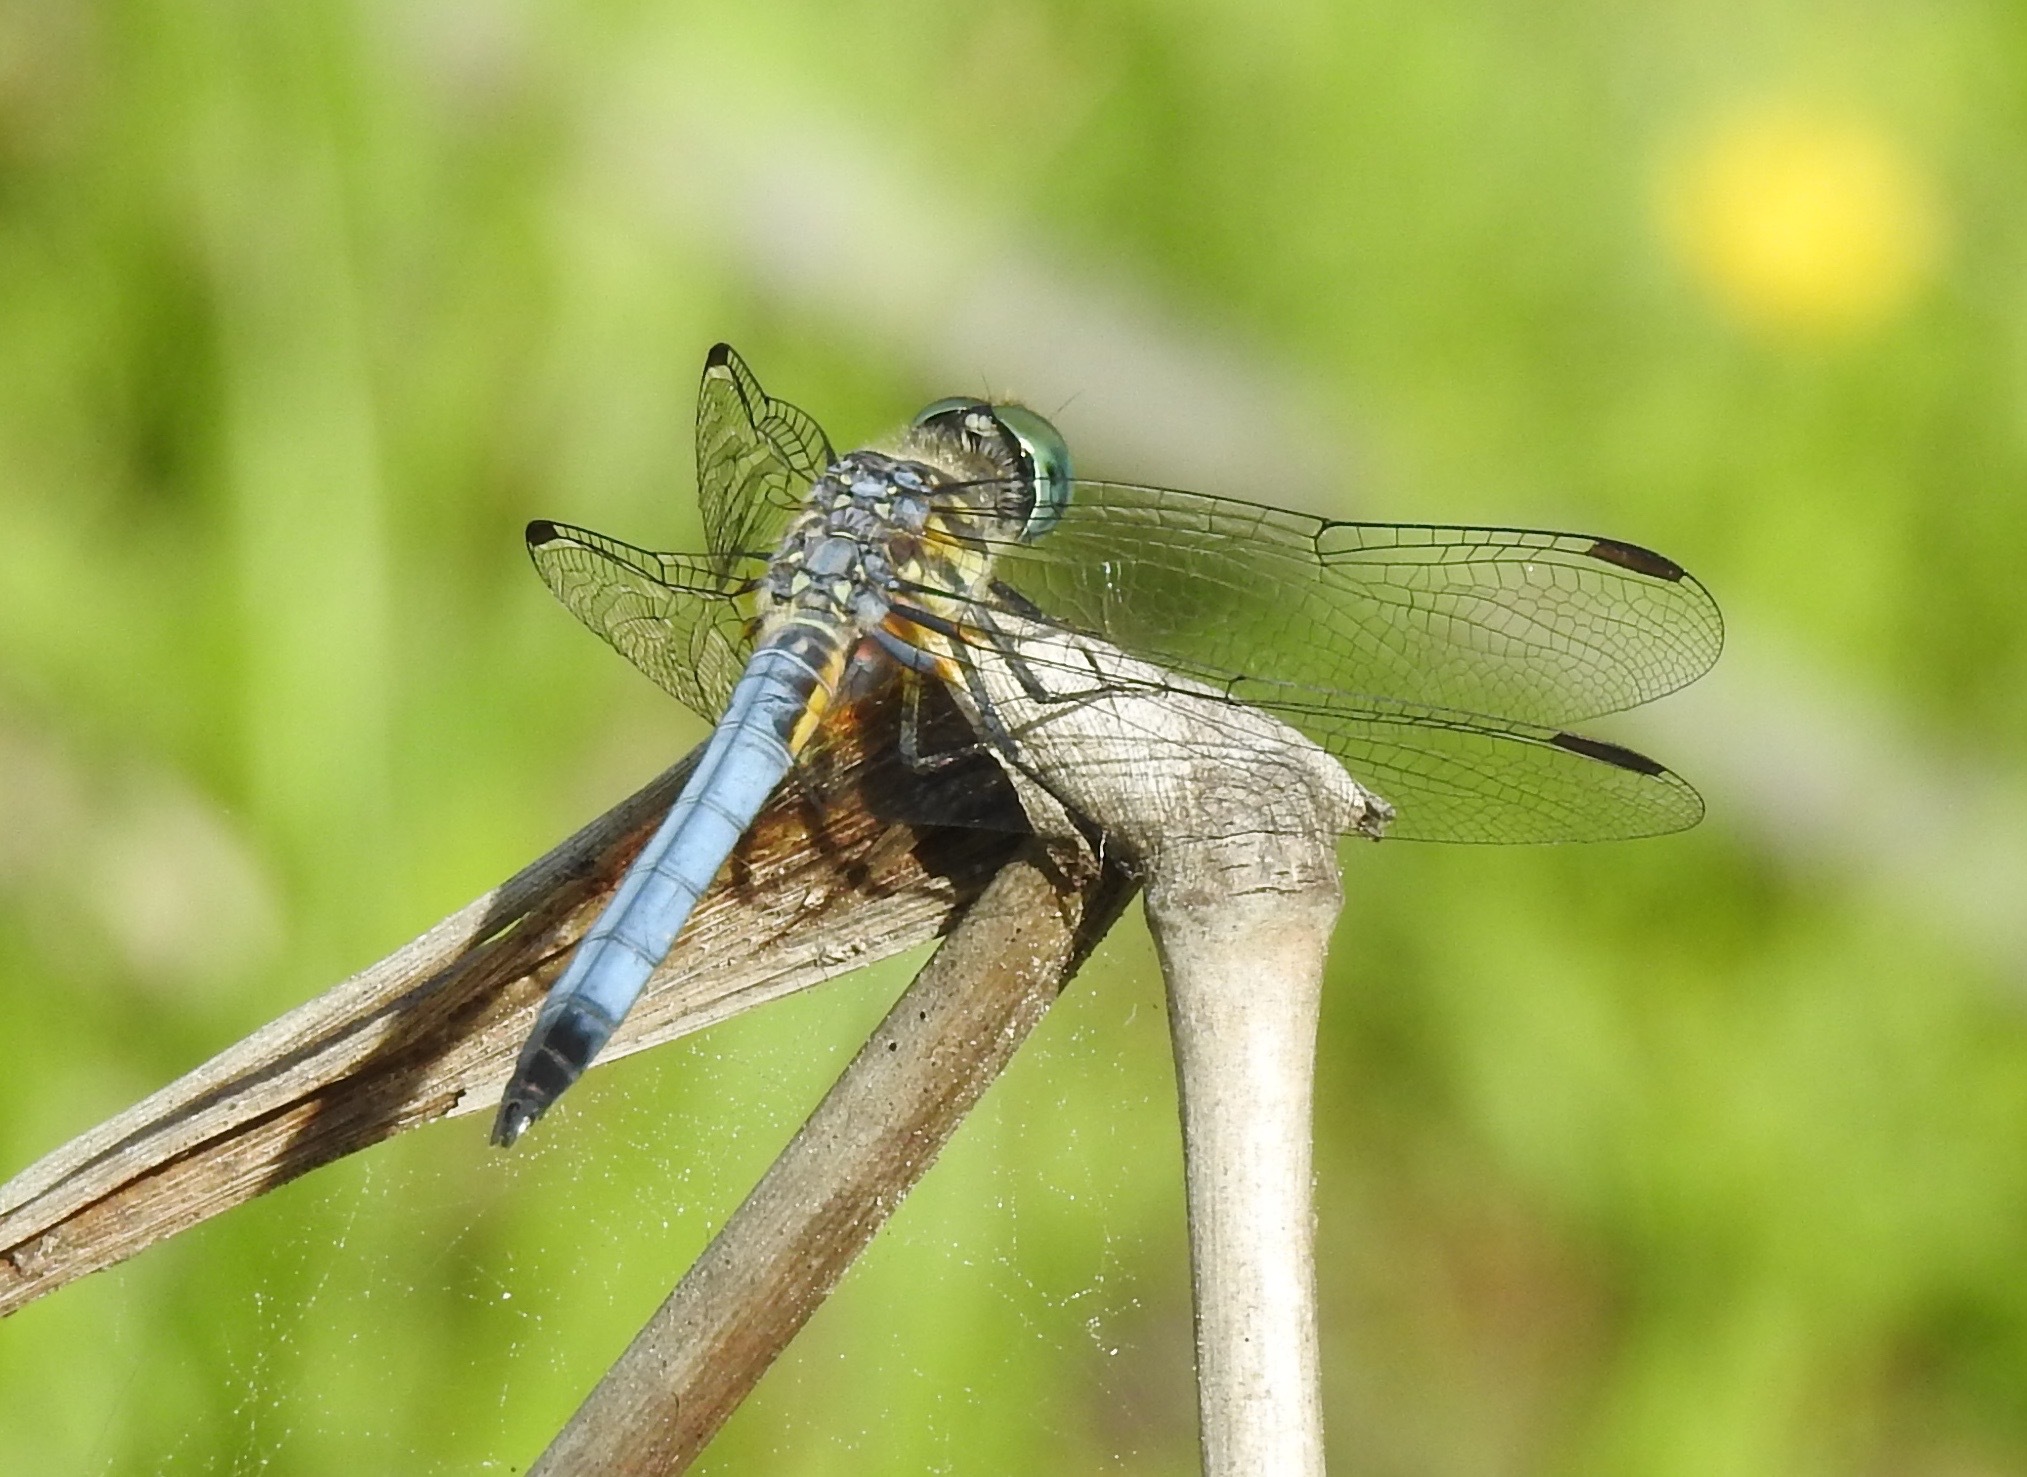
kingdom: Animalia
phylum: Arthropoda
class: Insecta
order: Odonata
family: Libellulidae
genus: Pachydiplax
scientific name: Pachydiplax longipennis
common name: Blue dasher
